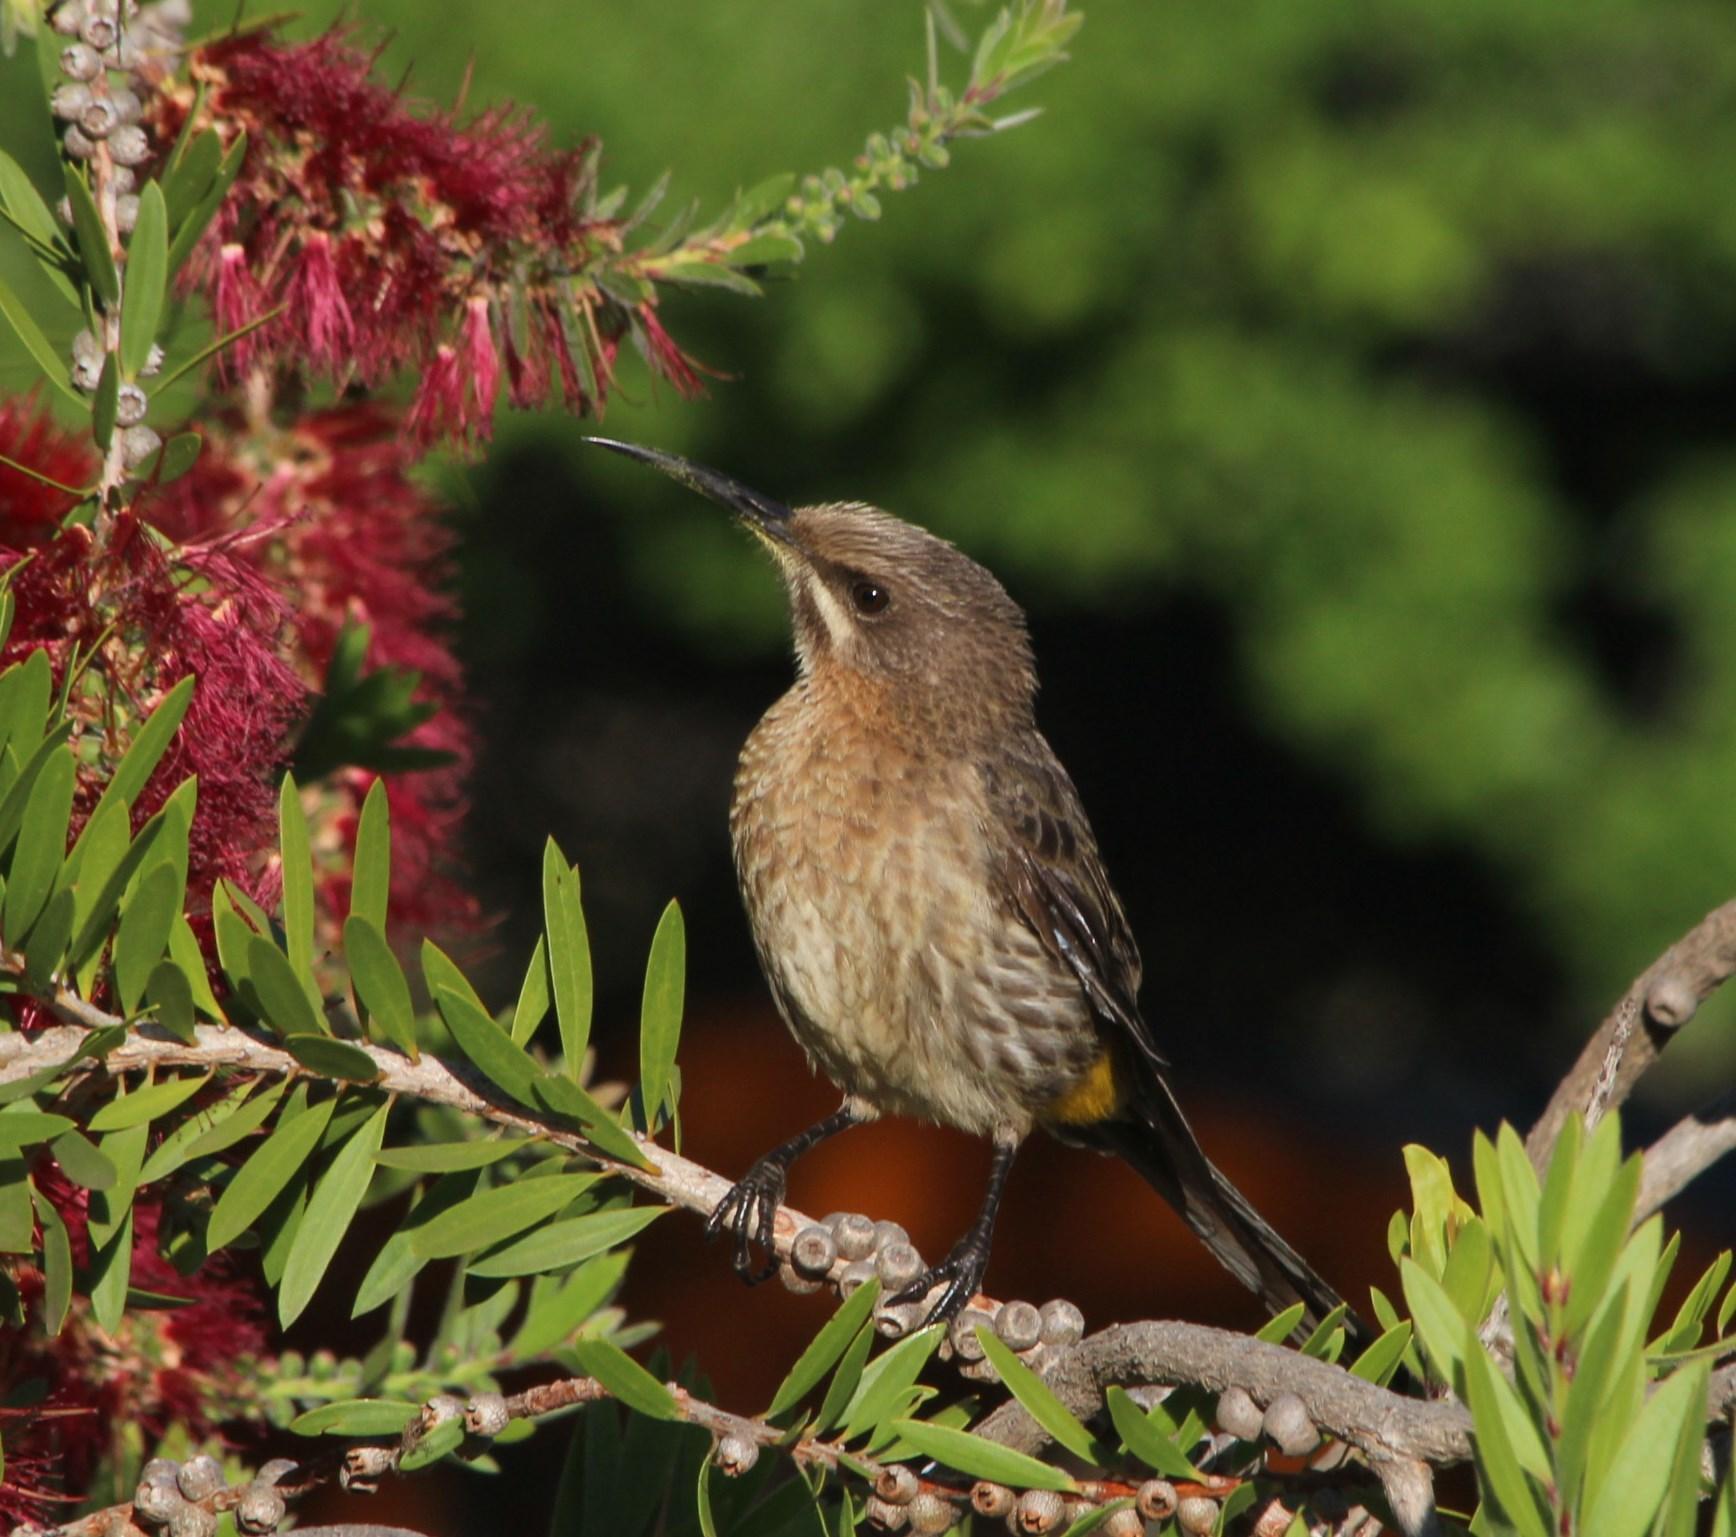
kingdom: Animalia
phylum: Chordata
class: Aves
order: Passeriformes
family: Promeropidae
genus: Promerops
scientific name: Promerops cafer
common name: Cape sugarbird
